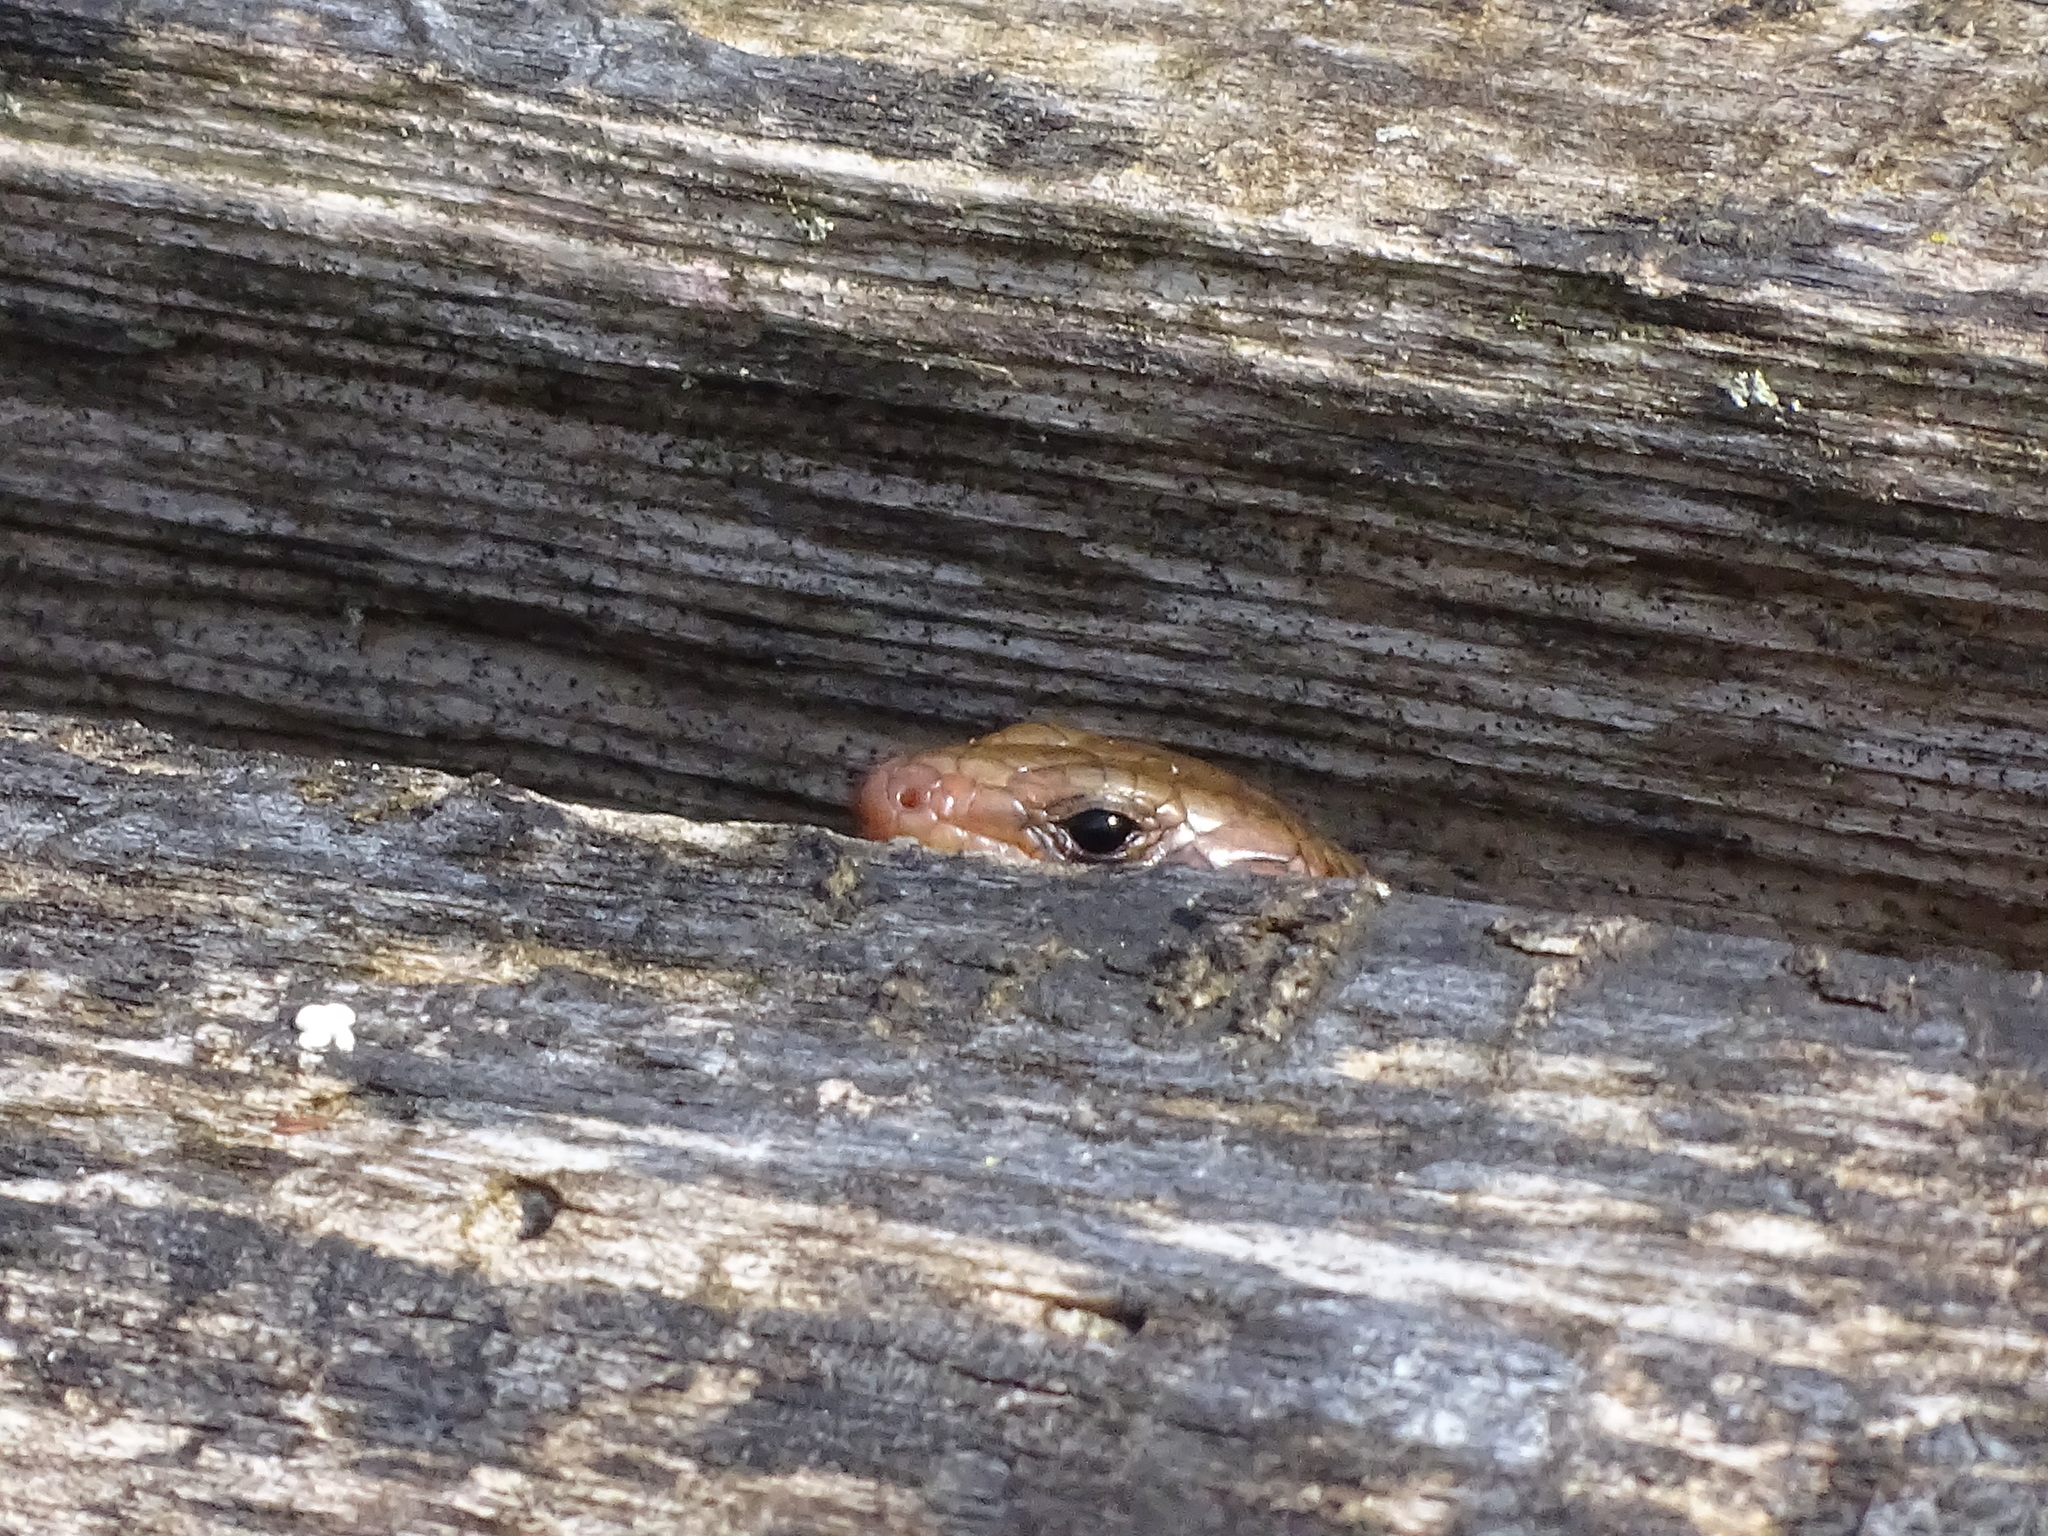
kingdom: Animalia
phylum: Chordata
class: Squamata
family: Scincidae
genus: Plestiodon
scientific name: Plestiodon fasciatus
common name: Five-lined skink
